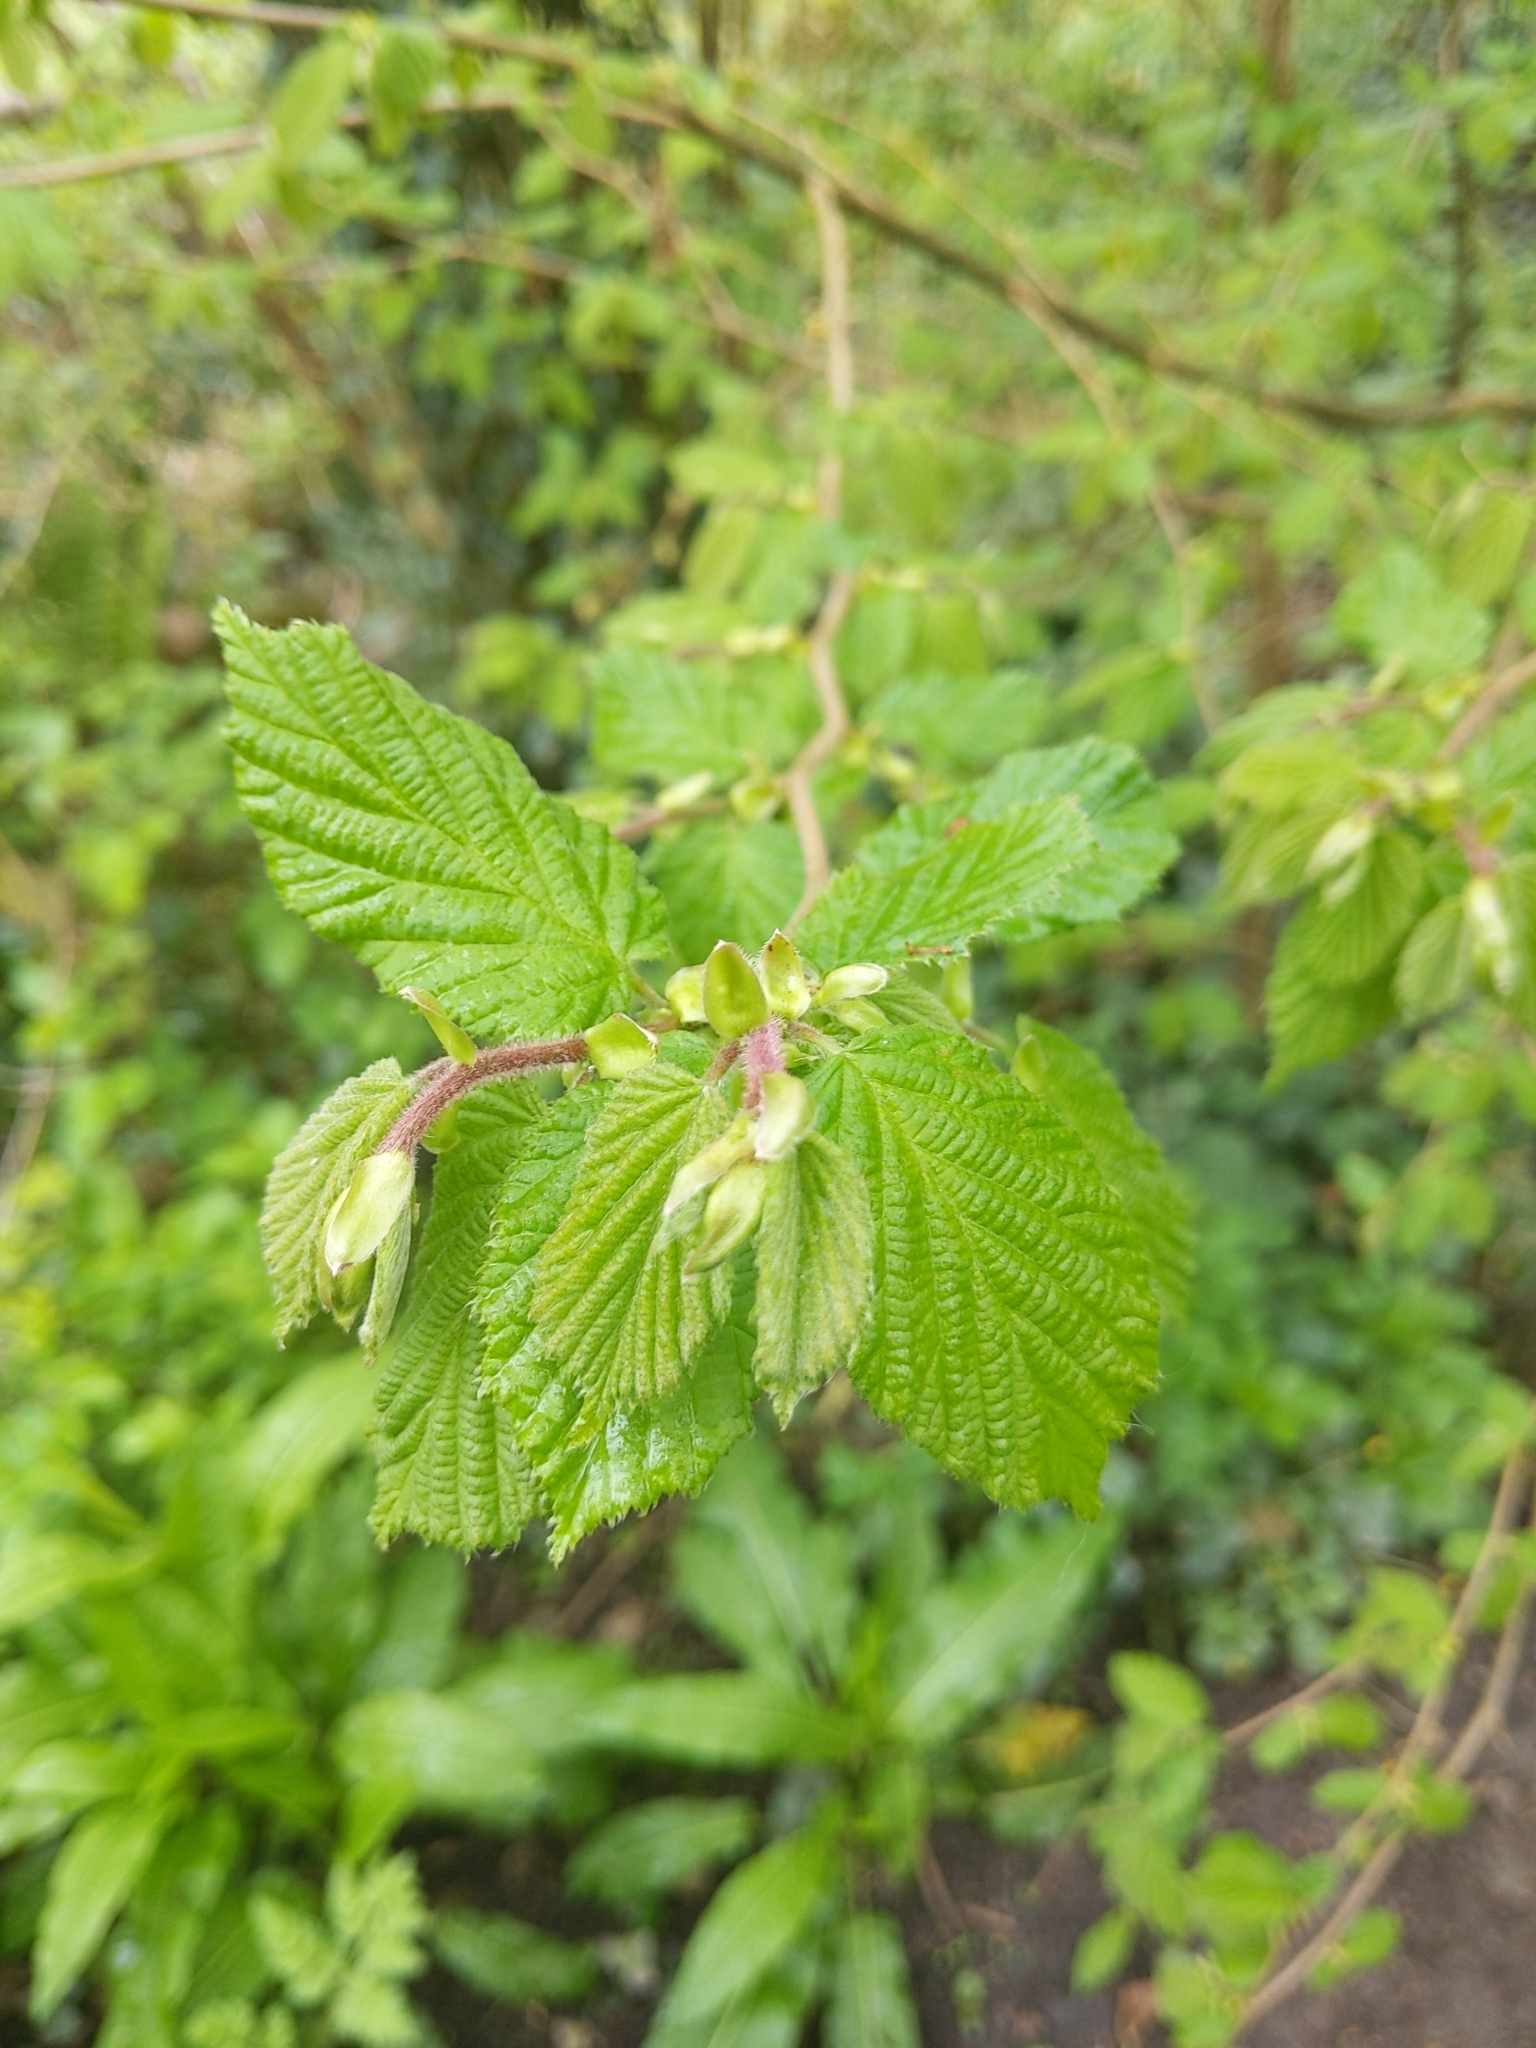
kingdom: Plantae
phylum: Tracheophyta
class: Magnoliopsida
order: Fagales
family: Betulaceae
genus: Corylus
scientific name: Corylus avellana
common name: European hazel
